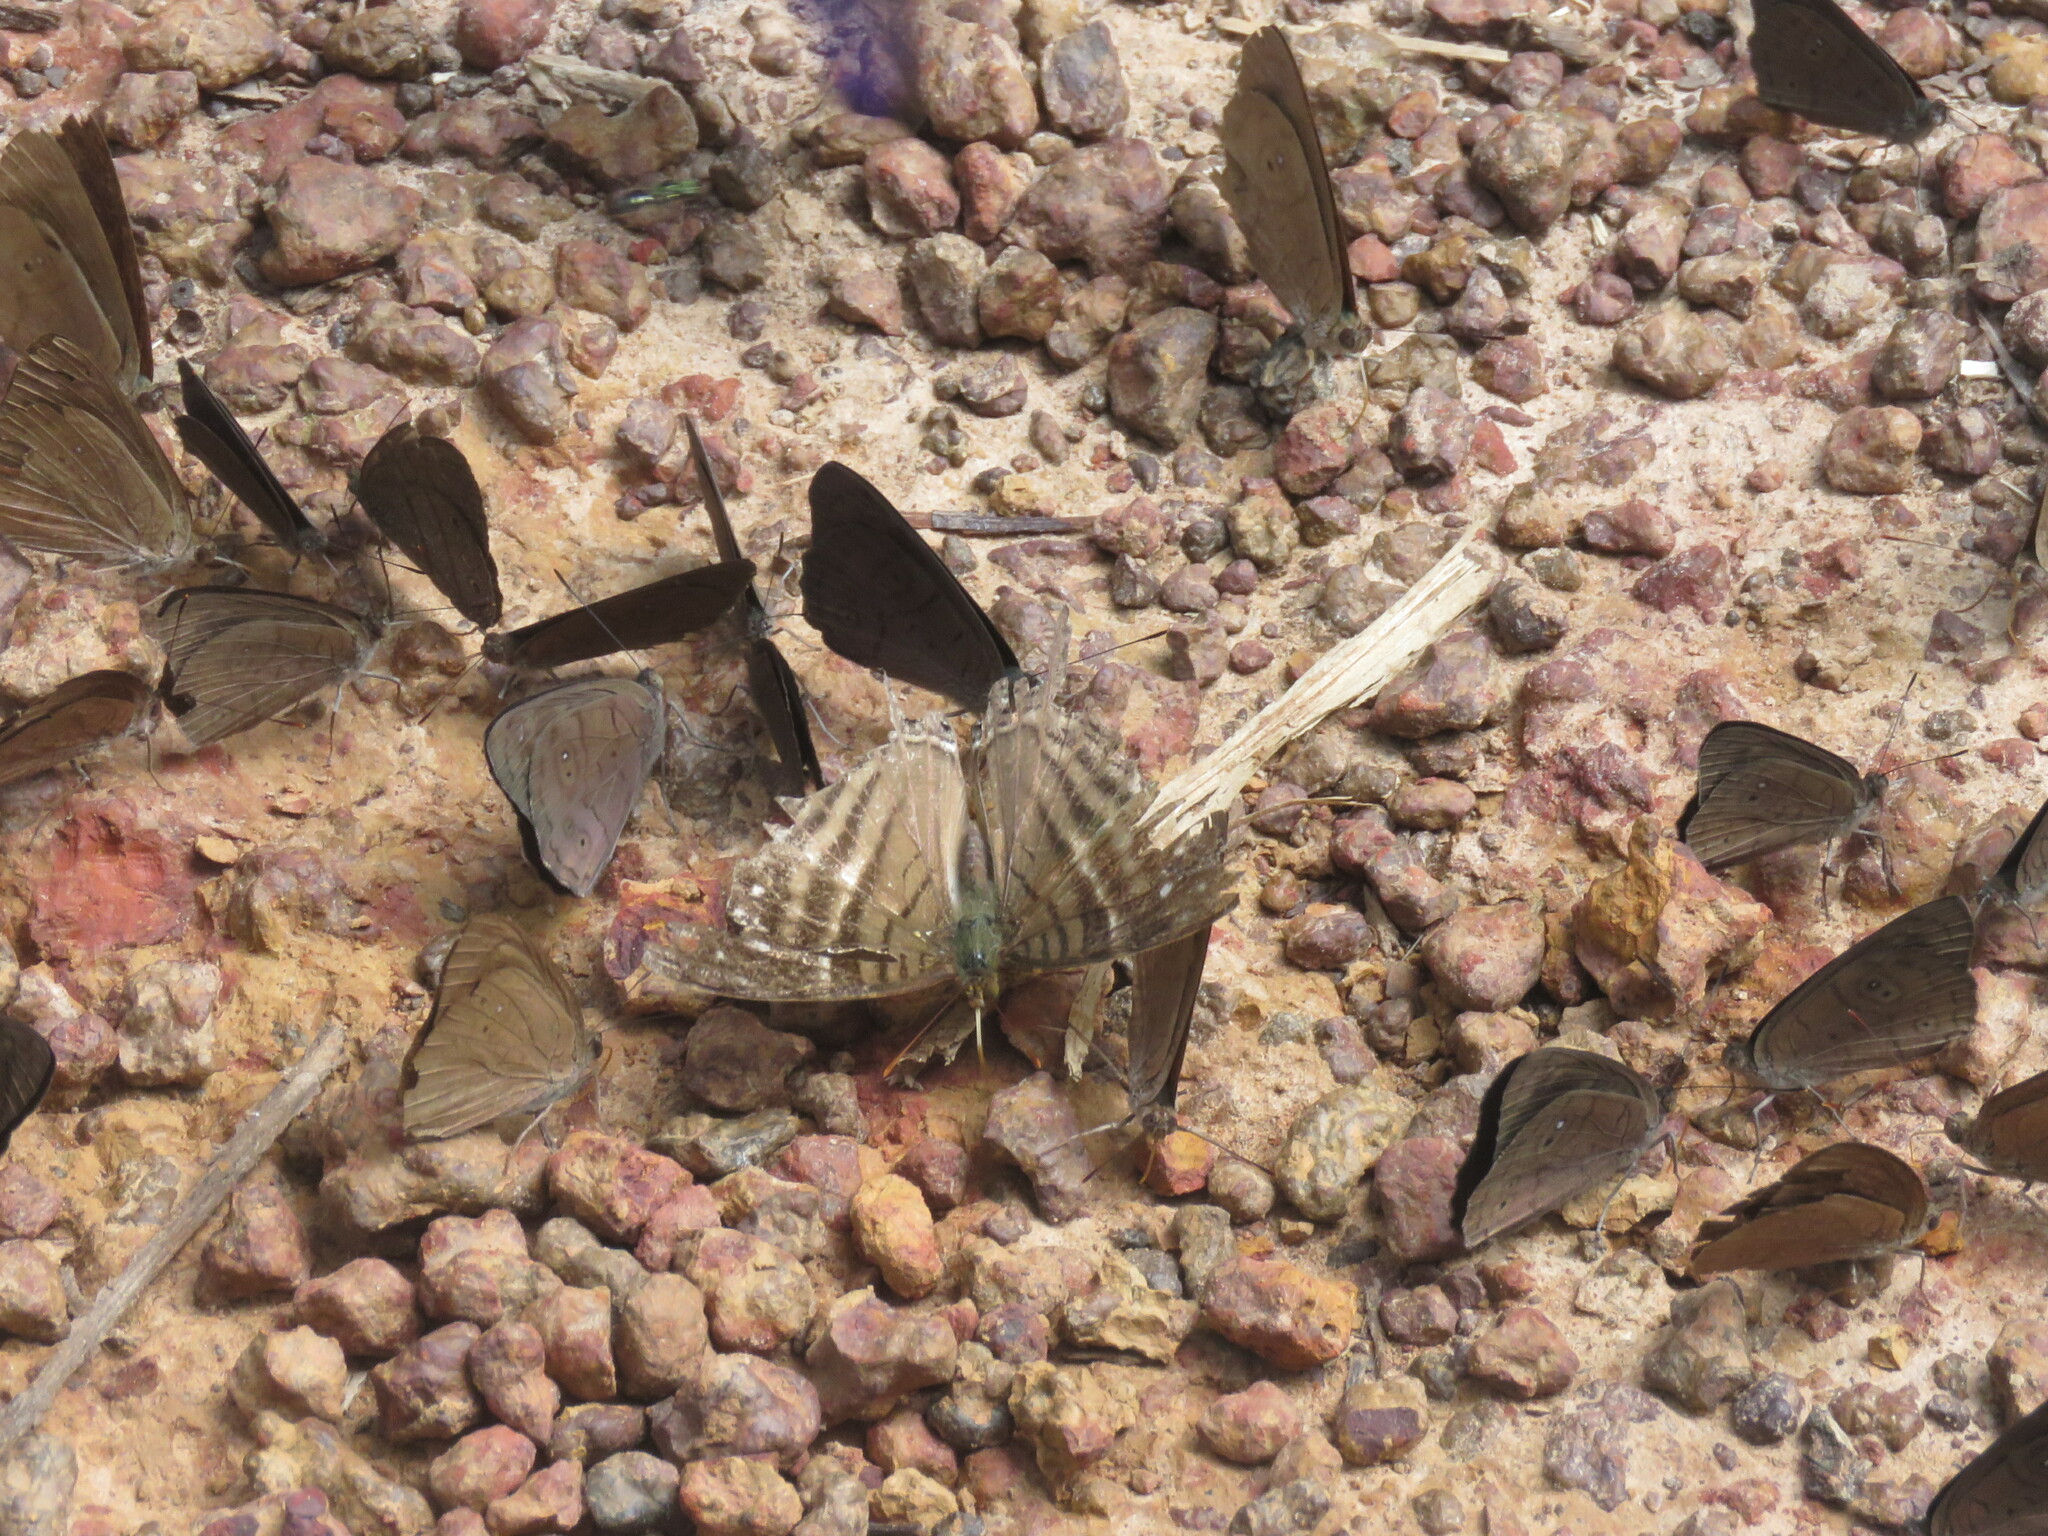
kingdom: Animalia
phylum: Arthropoda
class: Insecta
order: Lepidoptera
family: Nymphalidae
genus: Marpesia
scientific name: Marpesia egina
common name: Egina daggerwing
